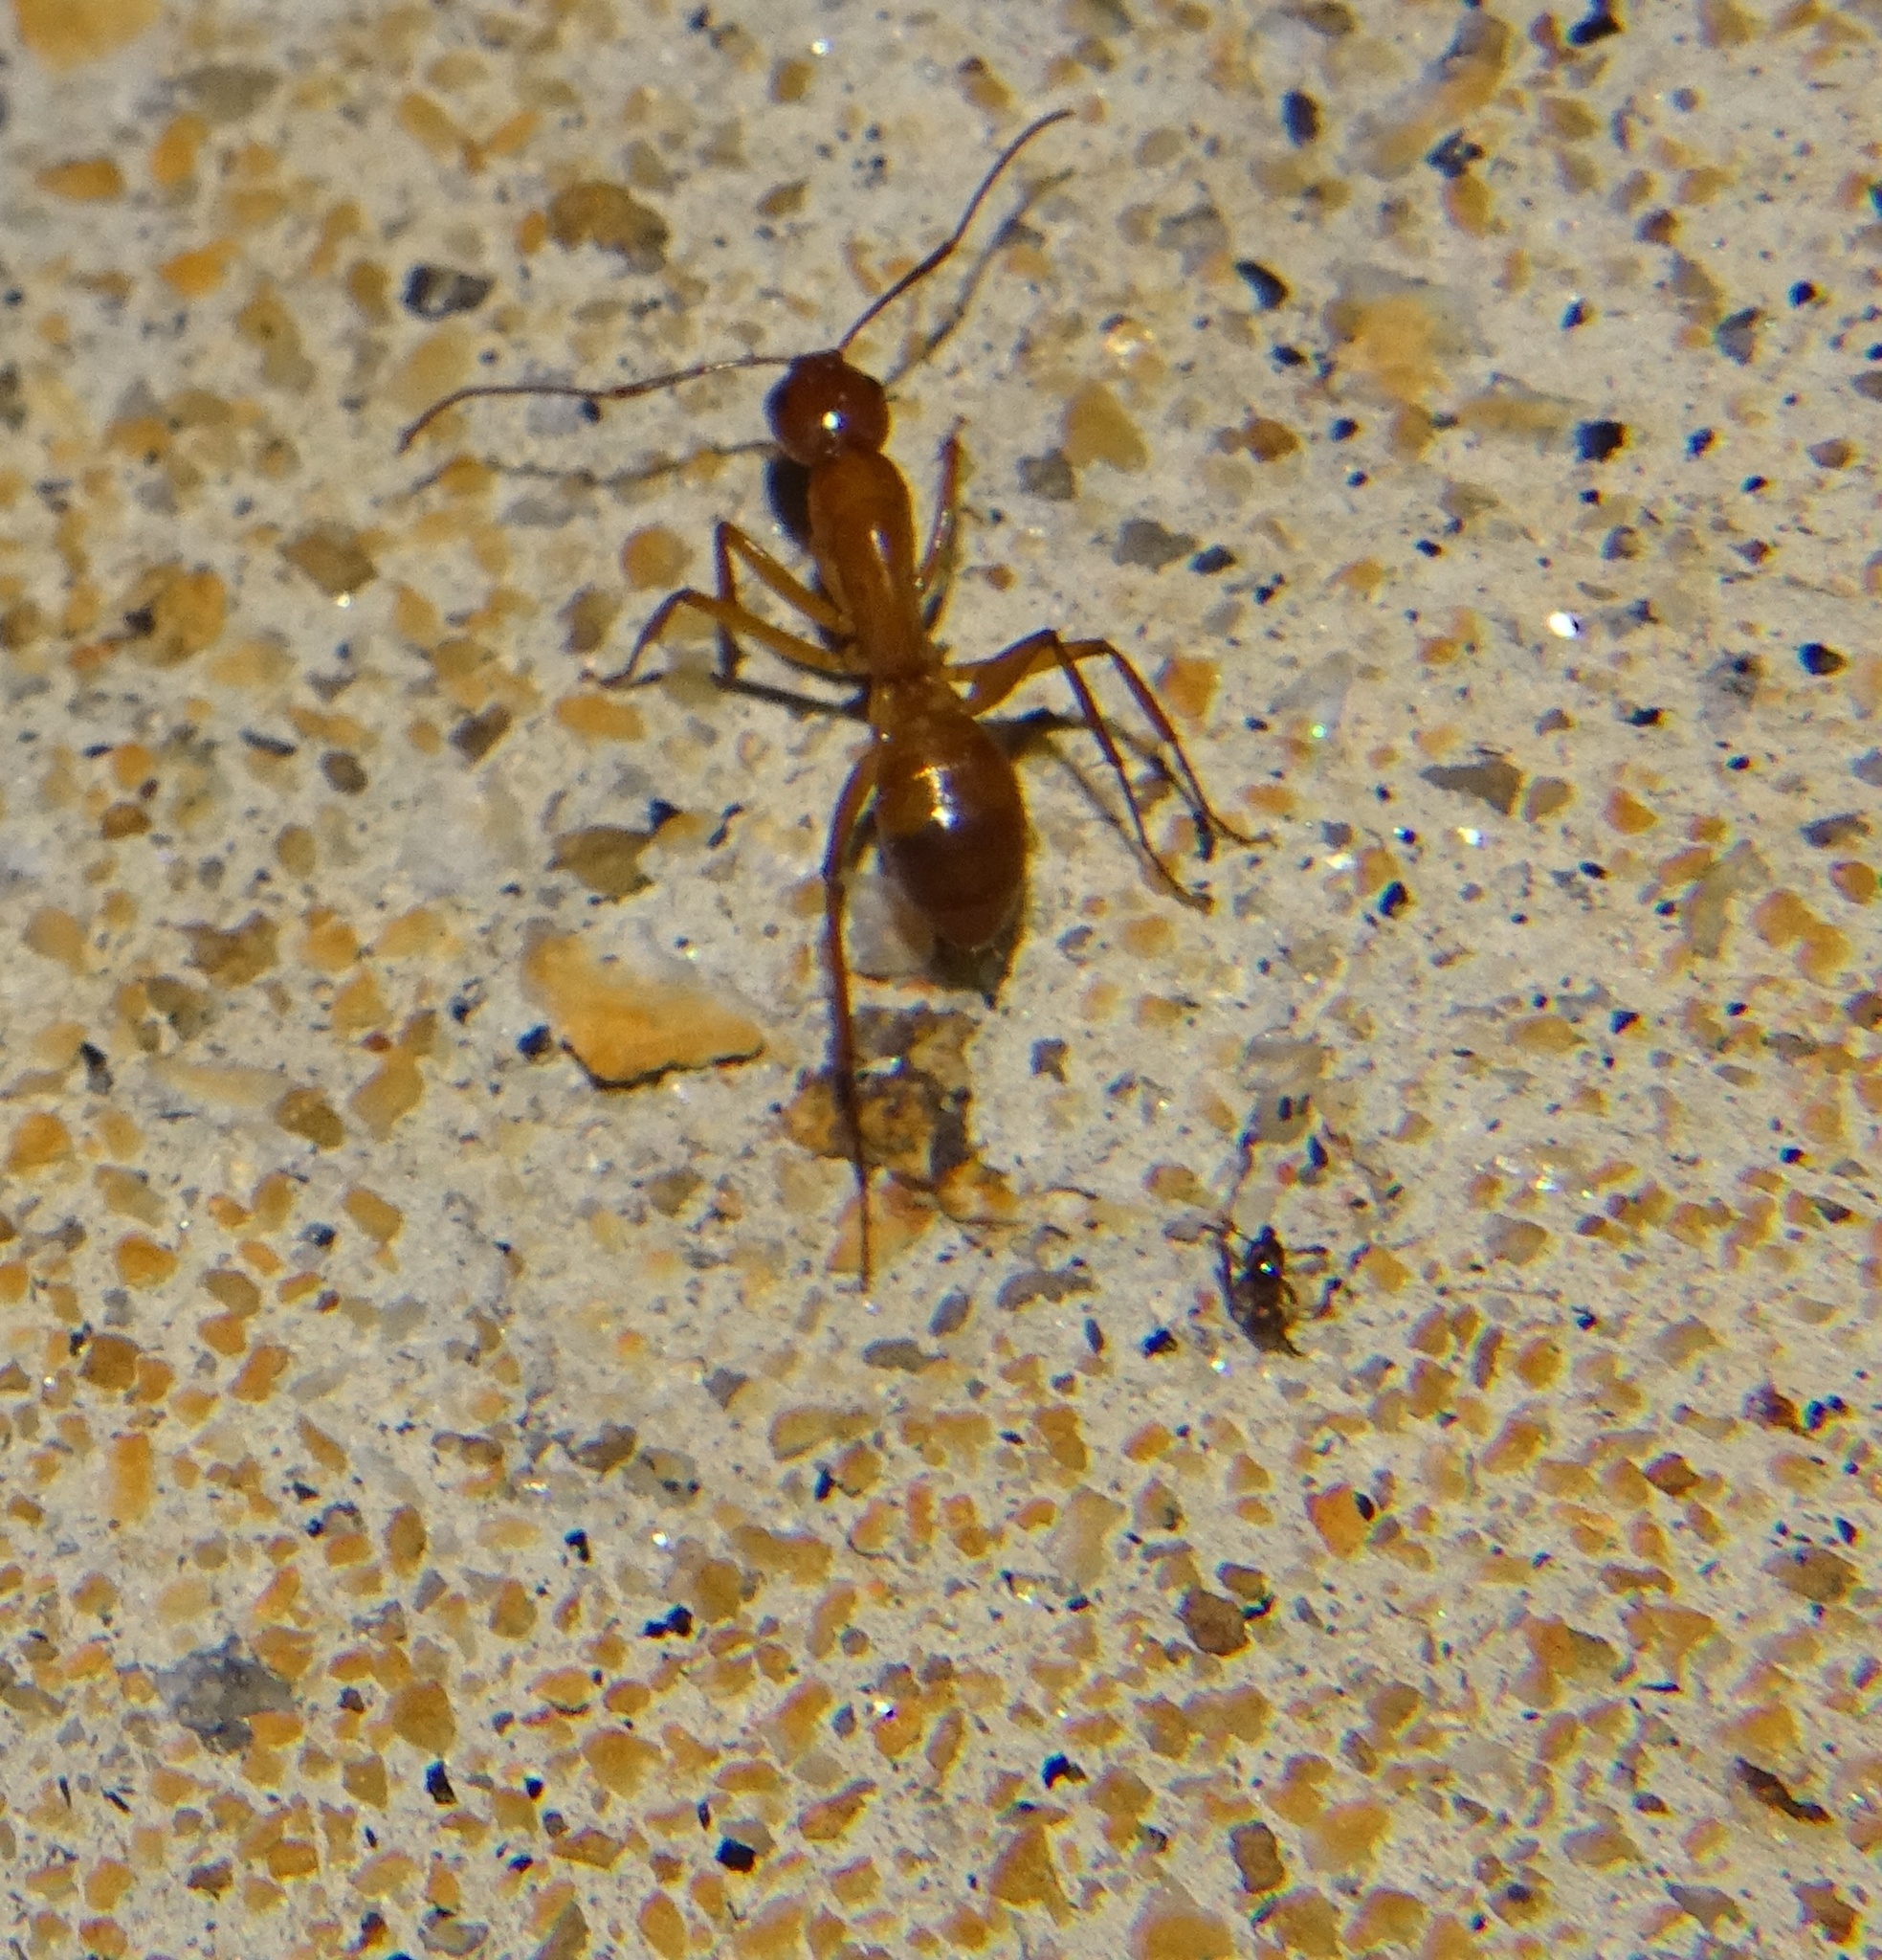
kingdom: Animalia
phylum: Arthropoda
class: Insecta
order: Hymenoptera
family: Formicidae
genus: Camponotus
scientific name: Camponotus castaneus
